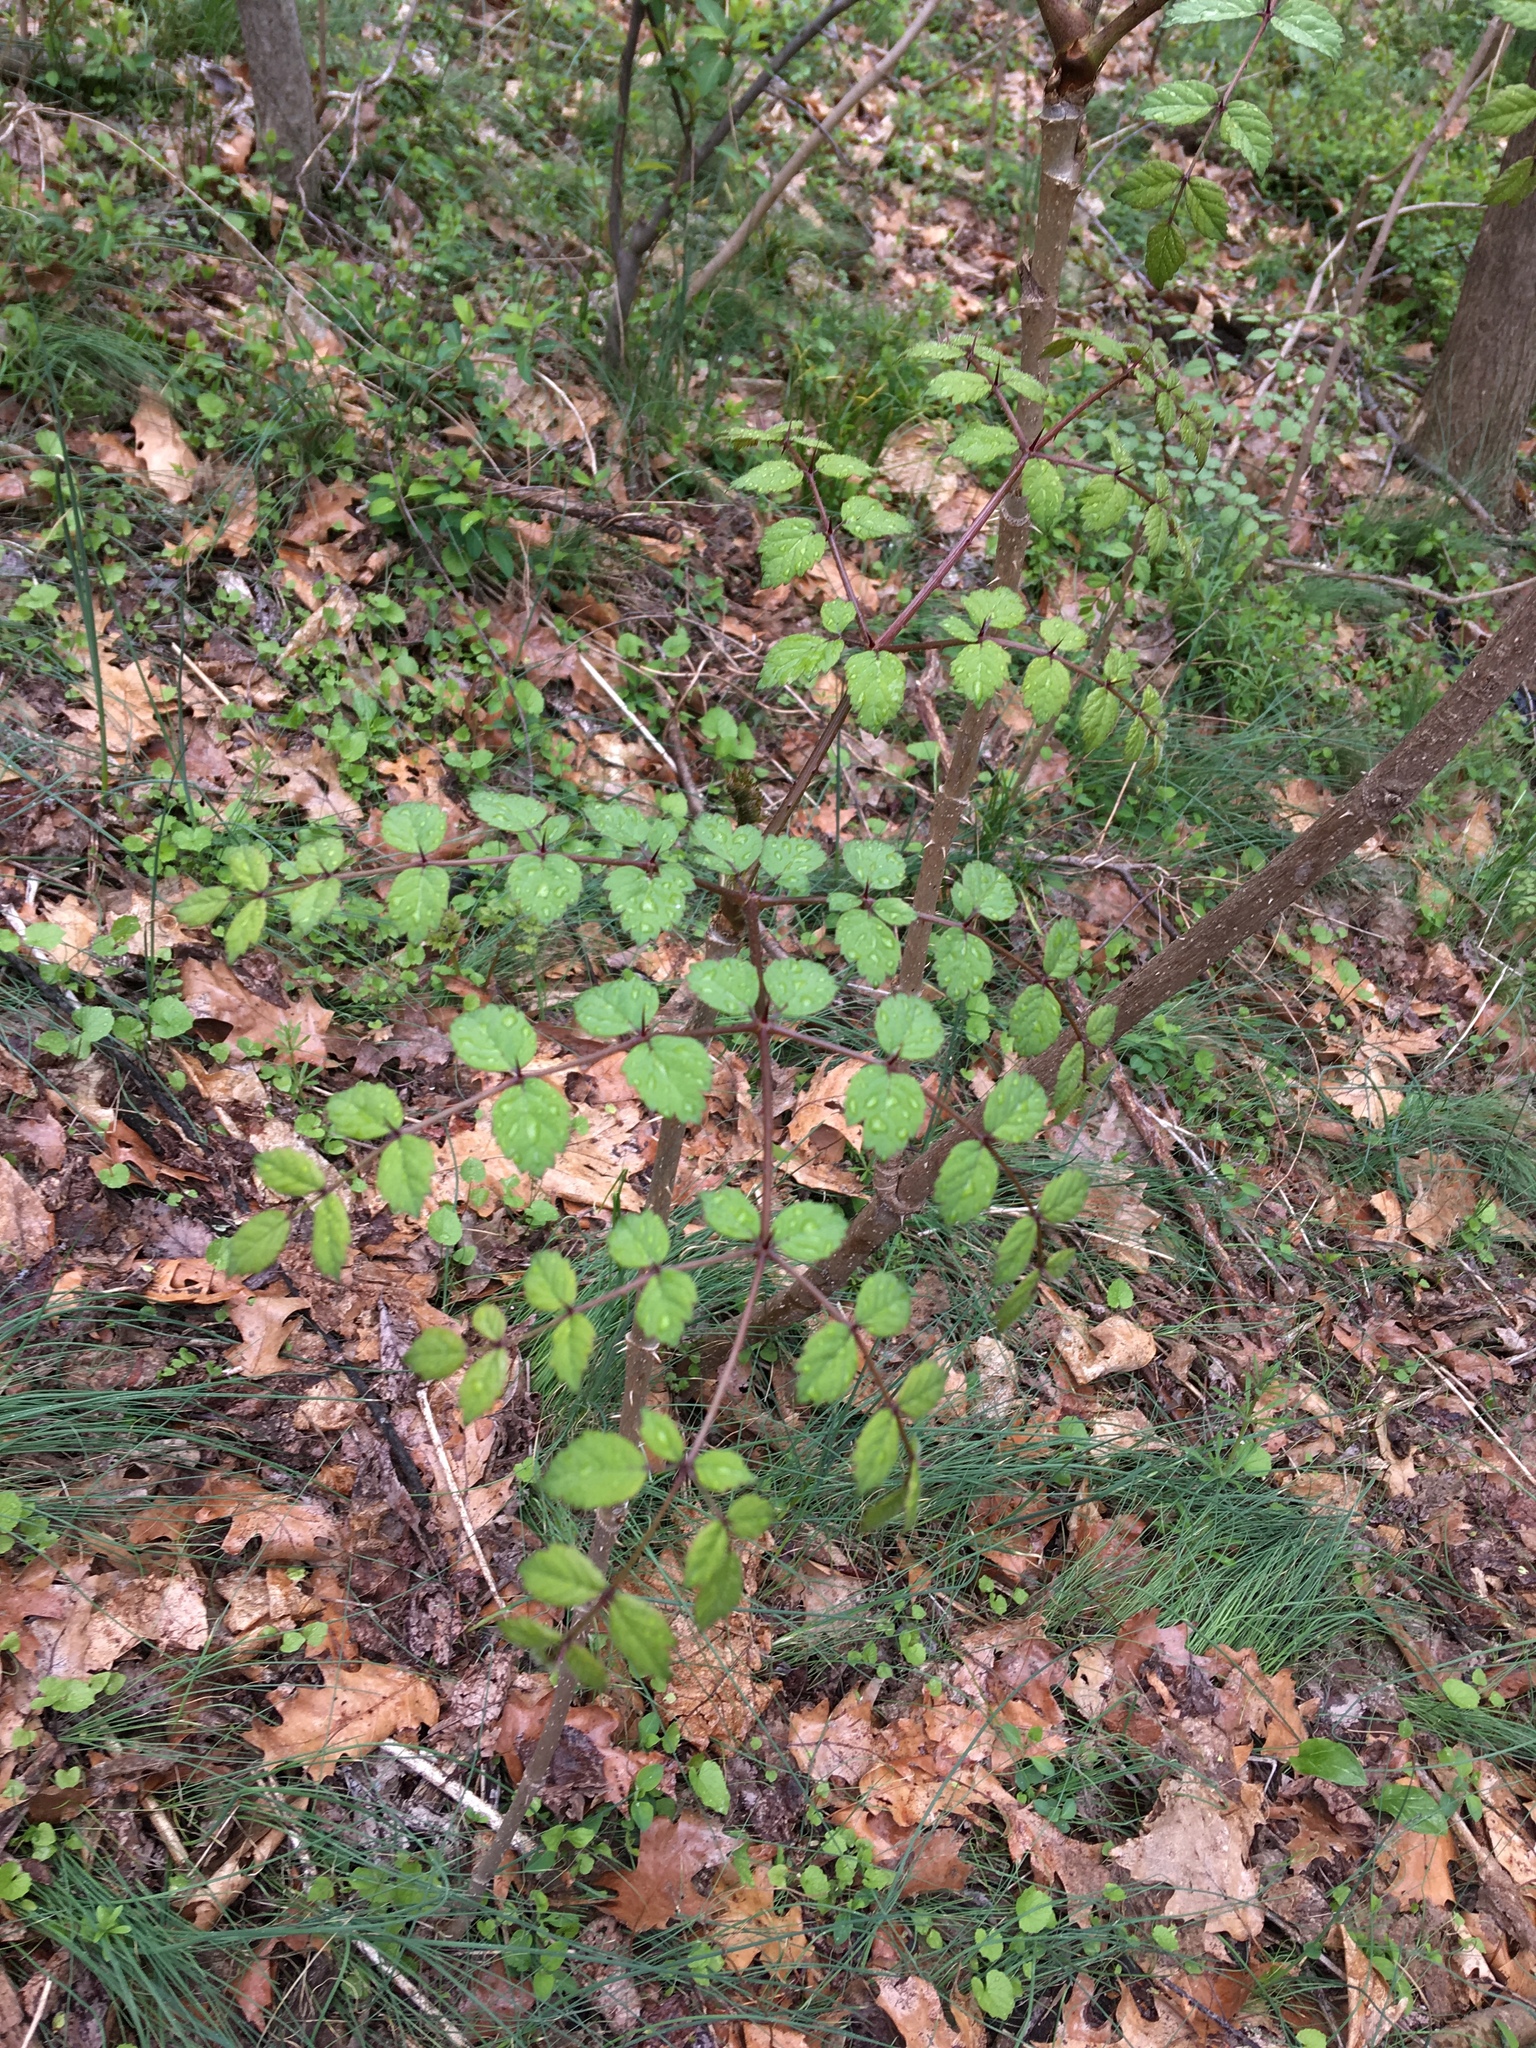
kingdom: Plantae
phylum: Tracheophyta
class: Magnoliopsida
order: Apiales
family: Araliaceae
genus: Aralia
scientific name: Aralia elata
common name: Japanese angelica-tree
